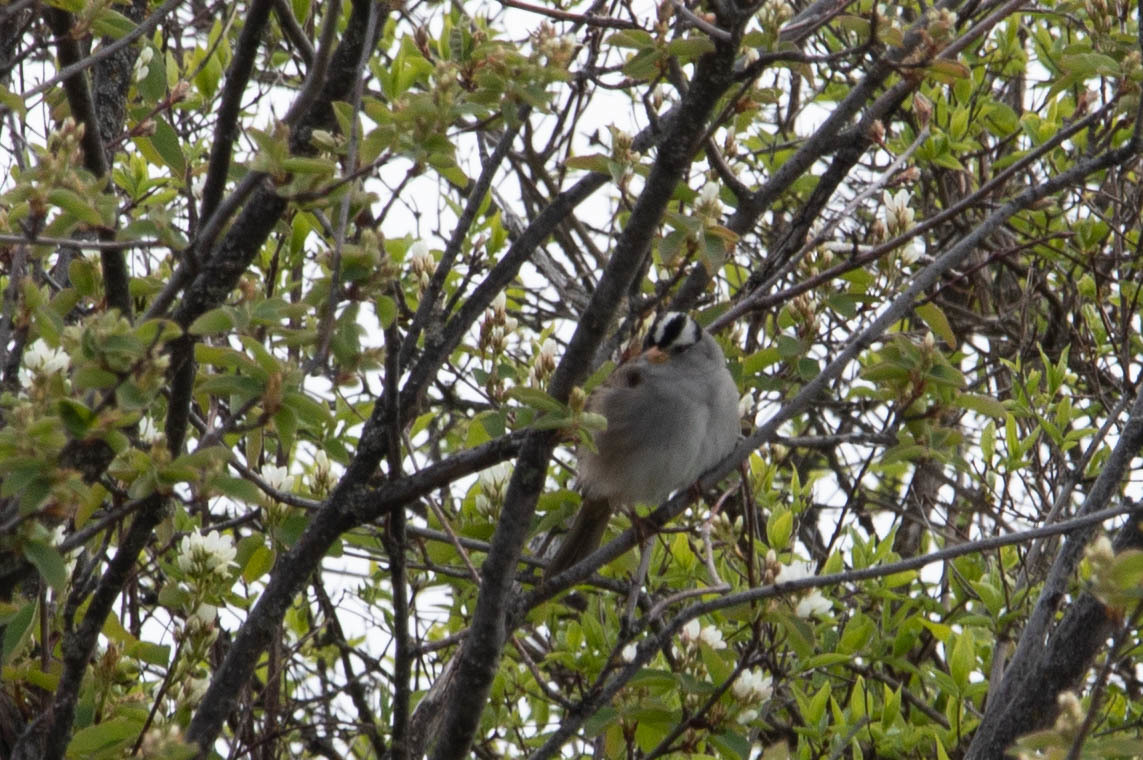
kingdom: Animalia
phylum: Chordata
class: Aves
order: Passeriformes
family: Passerellidae
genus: Zonotrichia
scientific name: Zonotrichia leucophrys
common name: White-crowned sparrow
